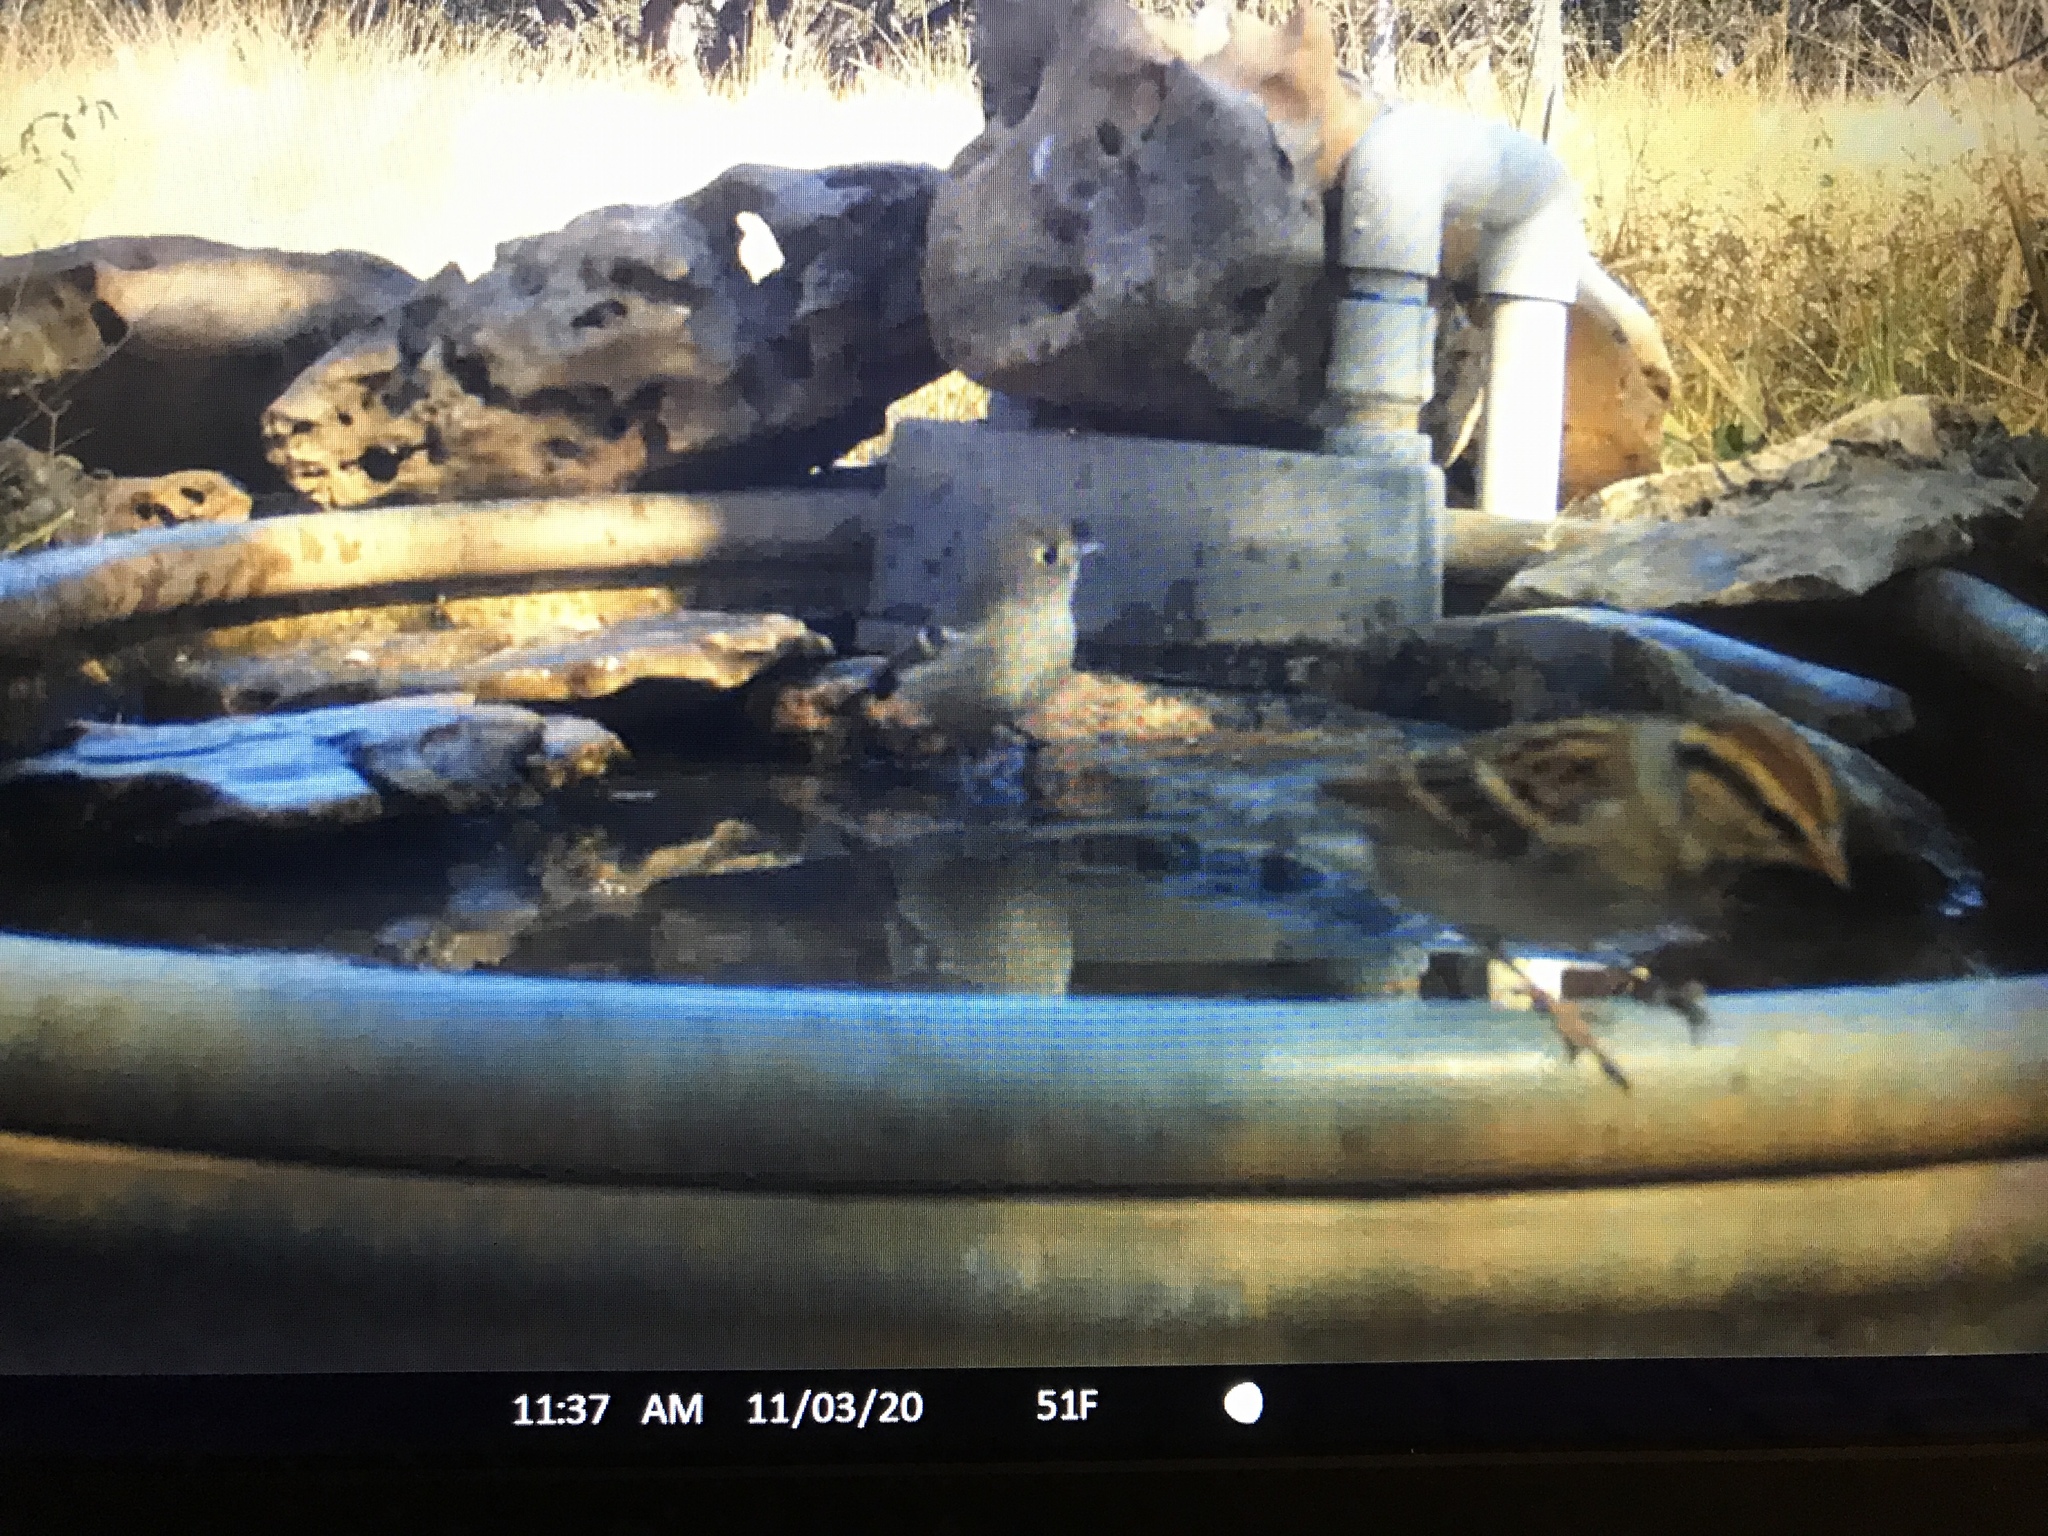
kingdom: Animalia
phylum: Chordata
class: Aves
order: Passeriformes
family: Vireonidae
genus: Vireo
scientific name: Vireo huttoni
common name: Hutton's vireo
